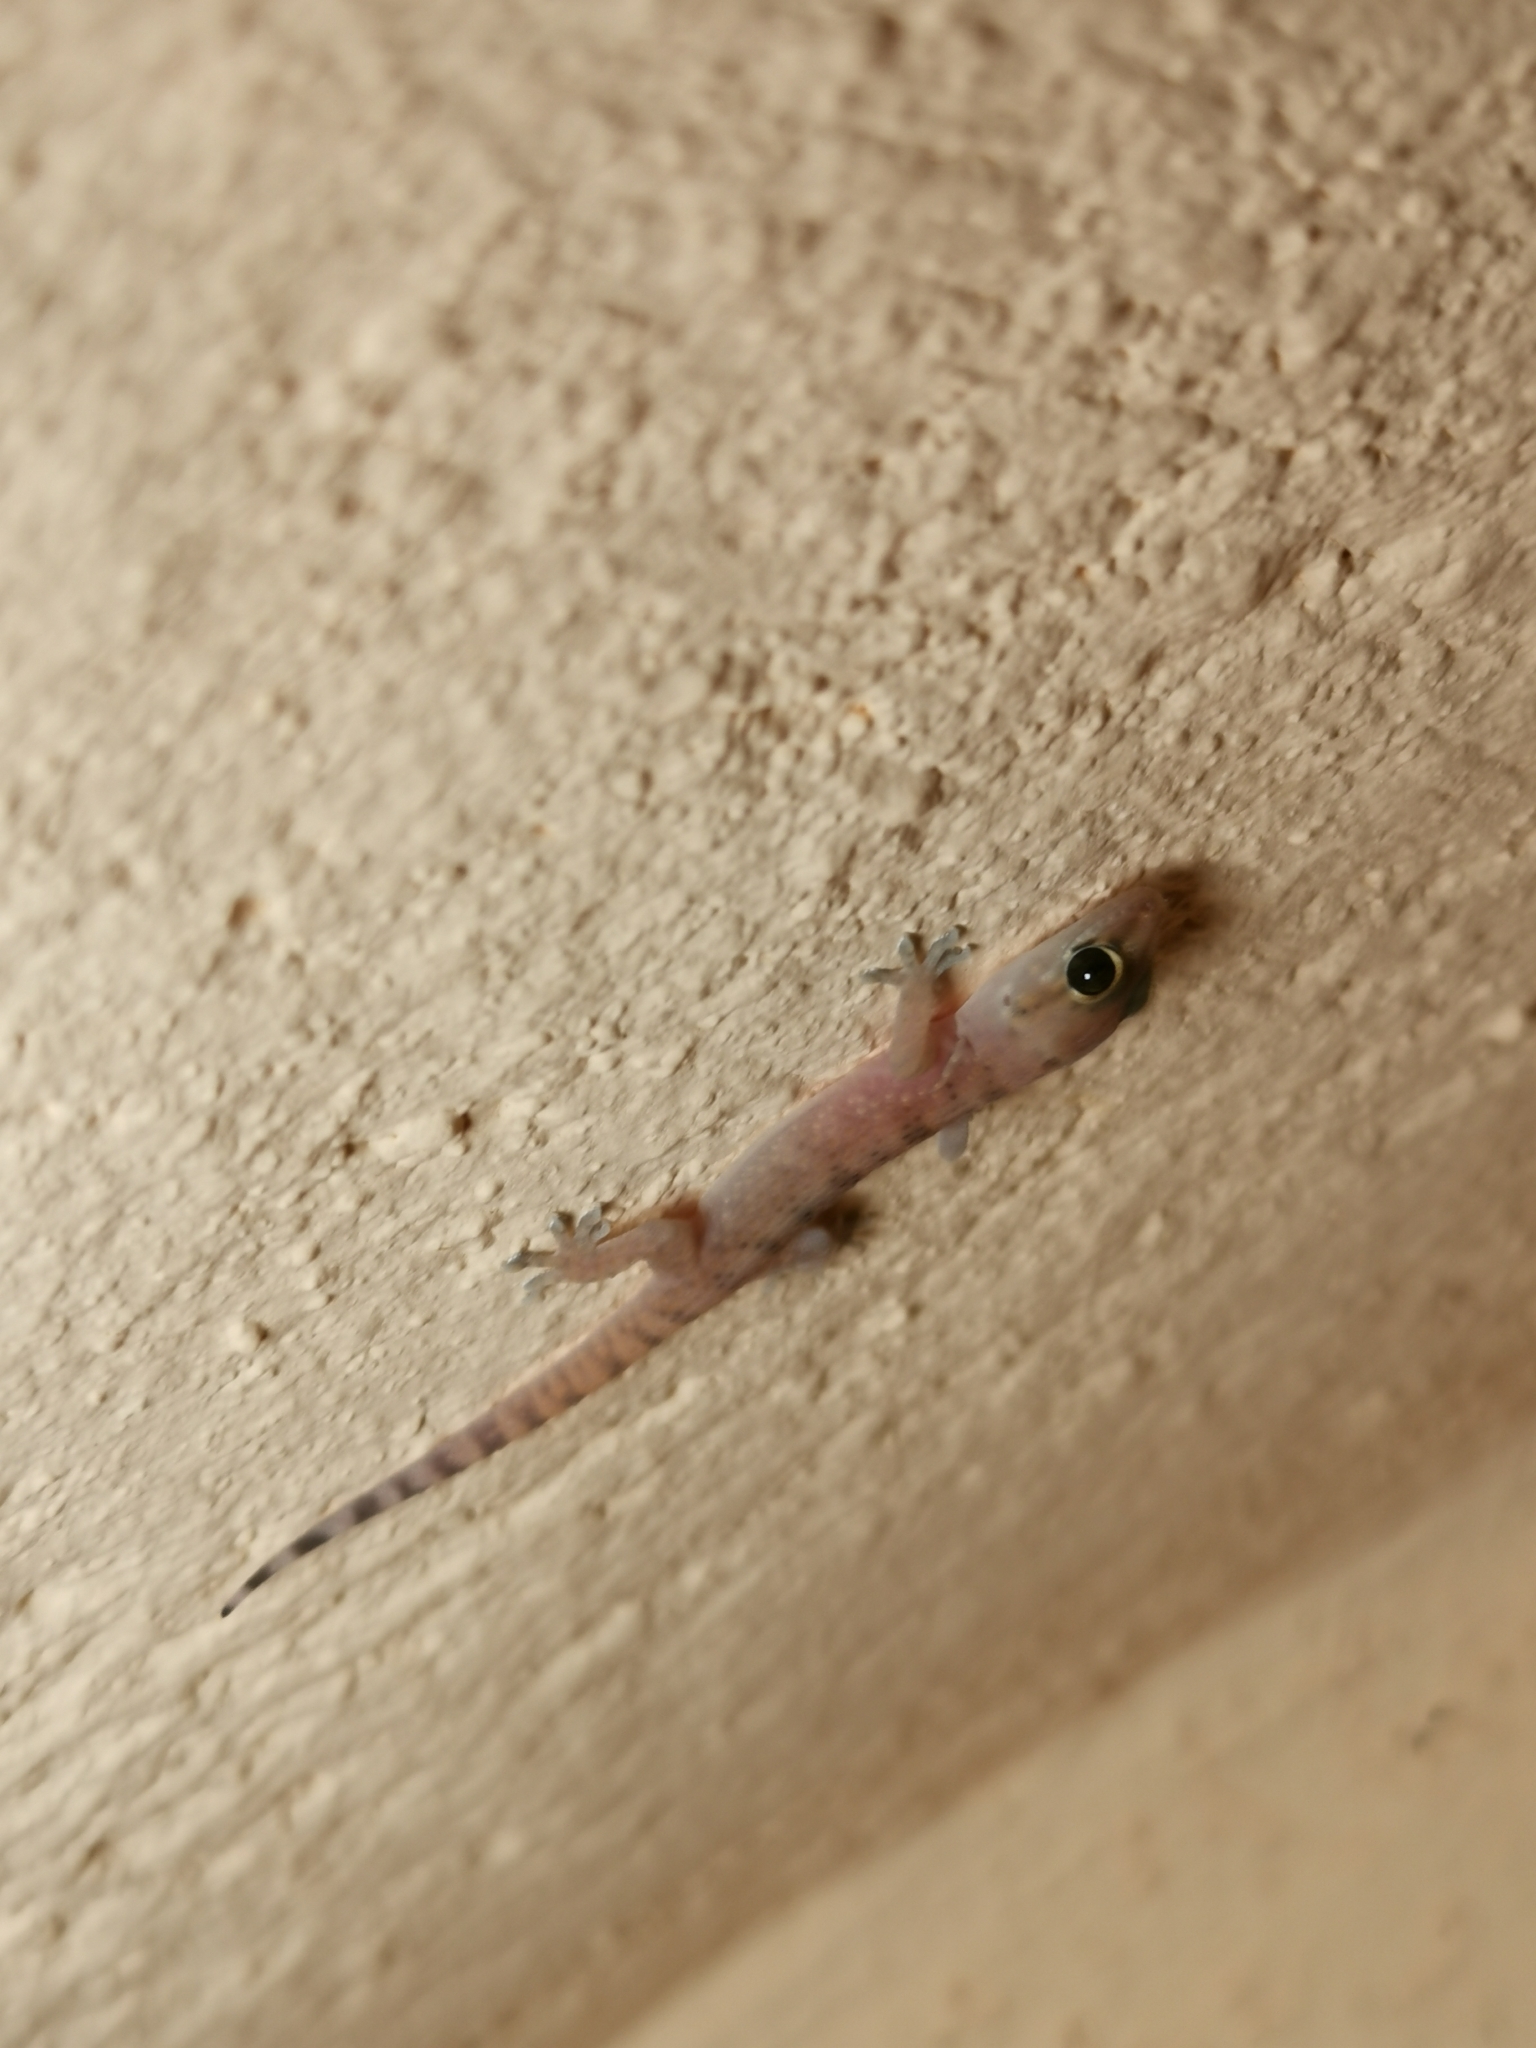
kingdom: Animalia
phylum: Chordata
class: Squamata
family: Gekkonidae
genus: Hemidactylus
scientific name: Hemidactylus turcicus
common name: Turkish gecko
